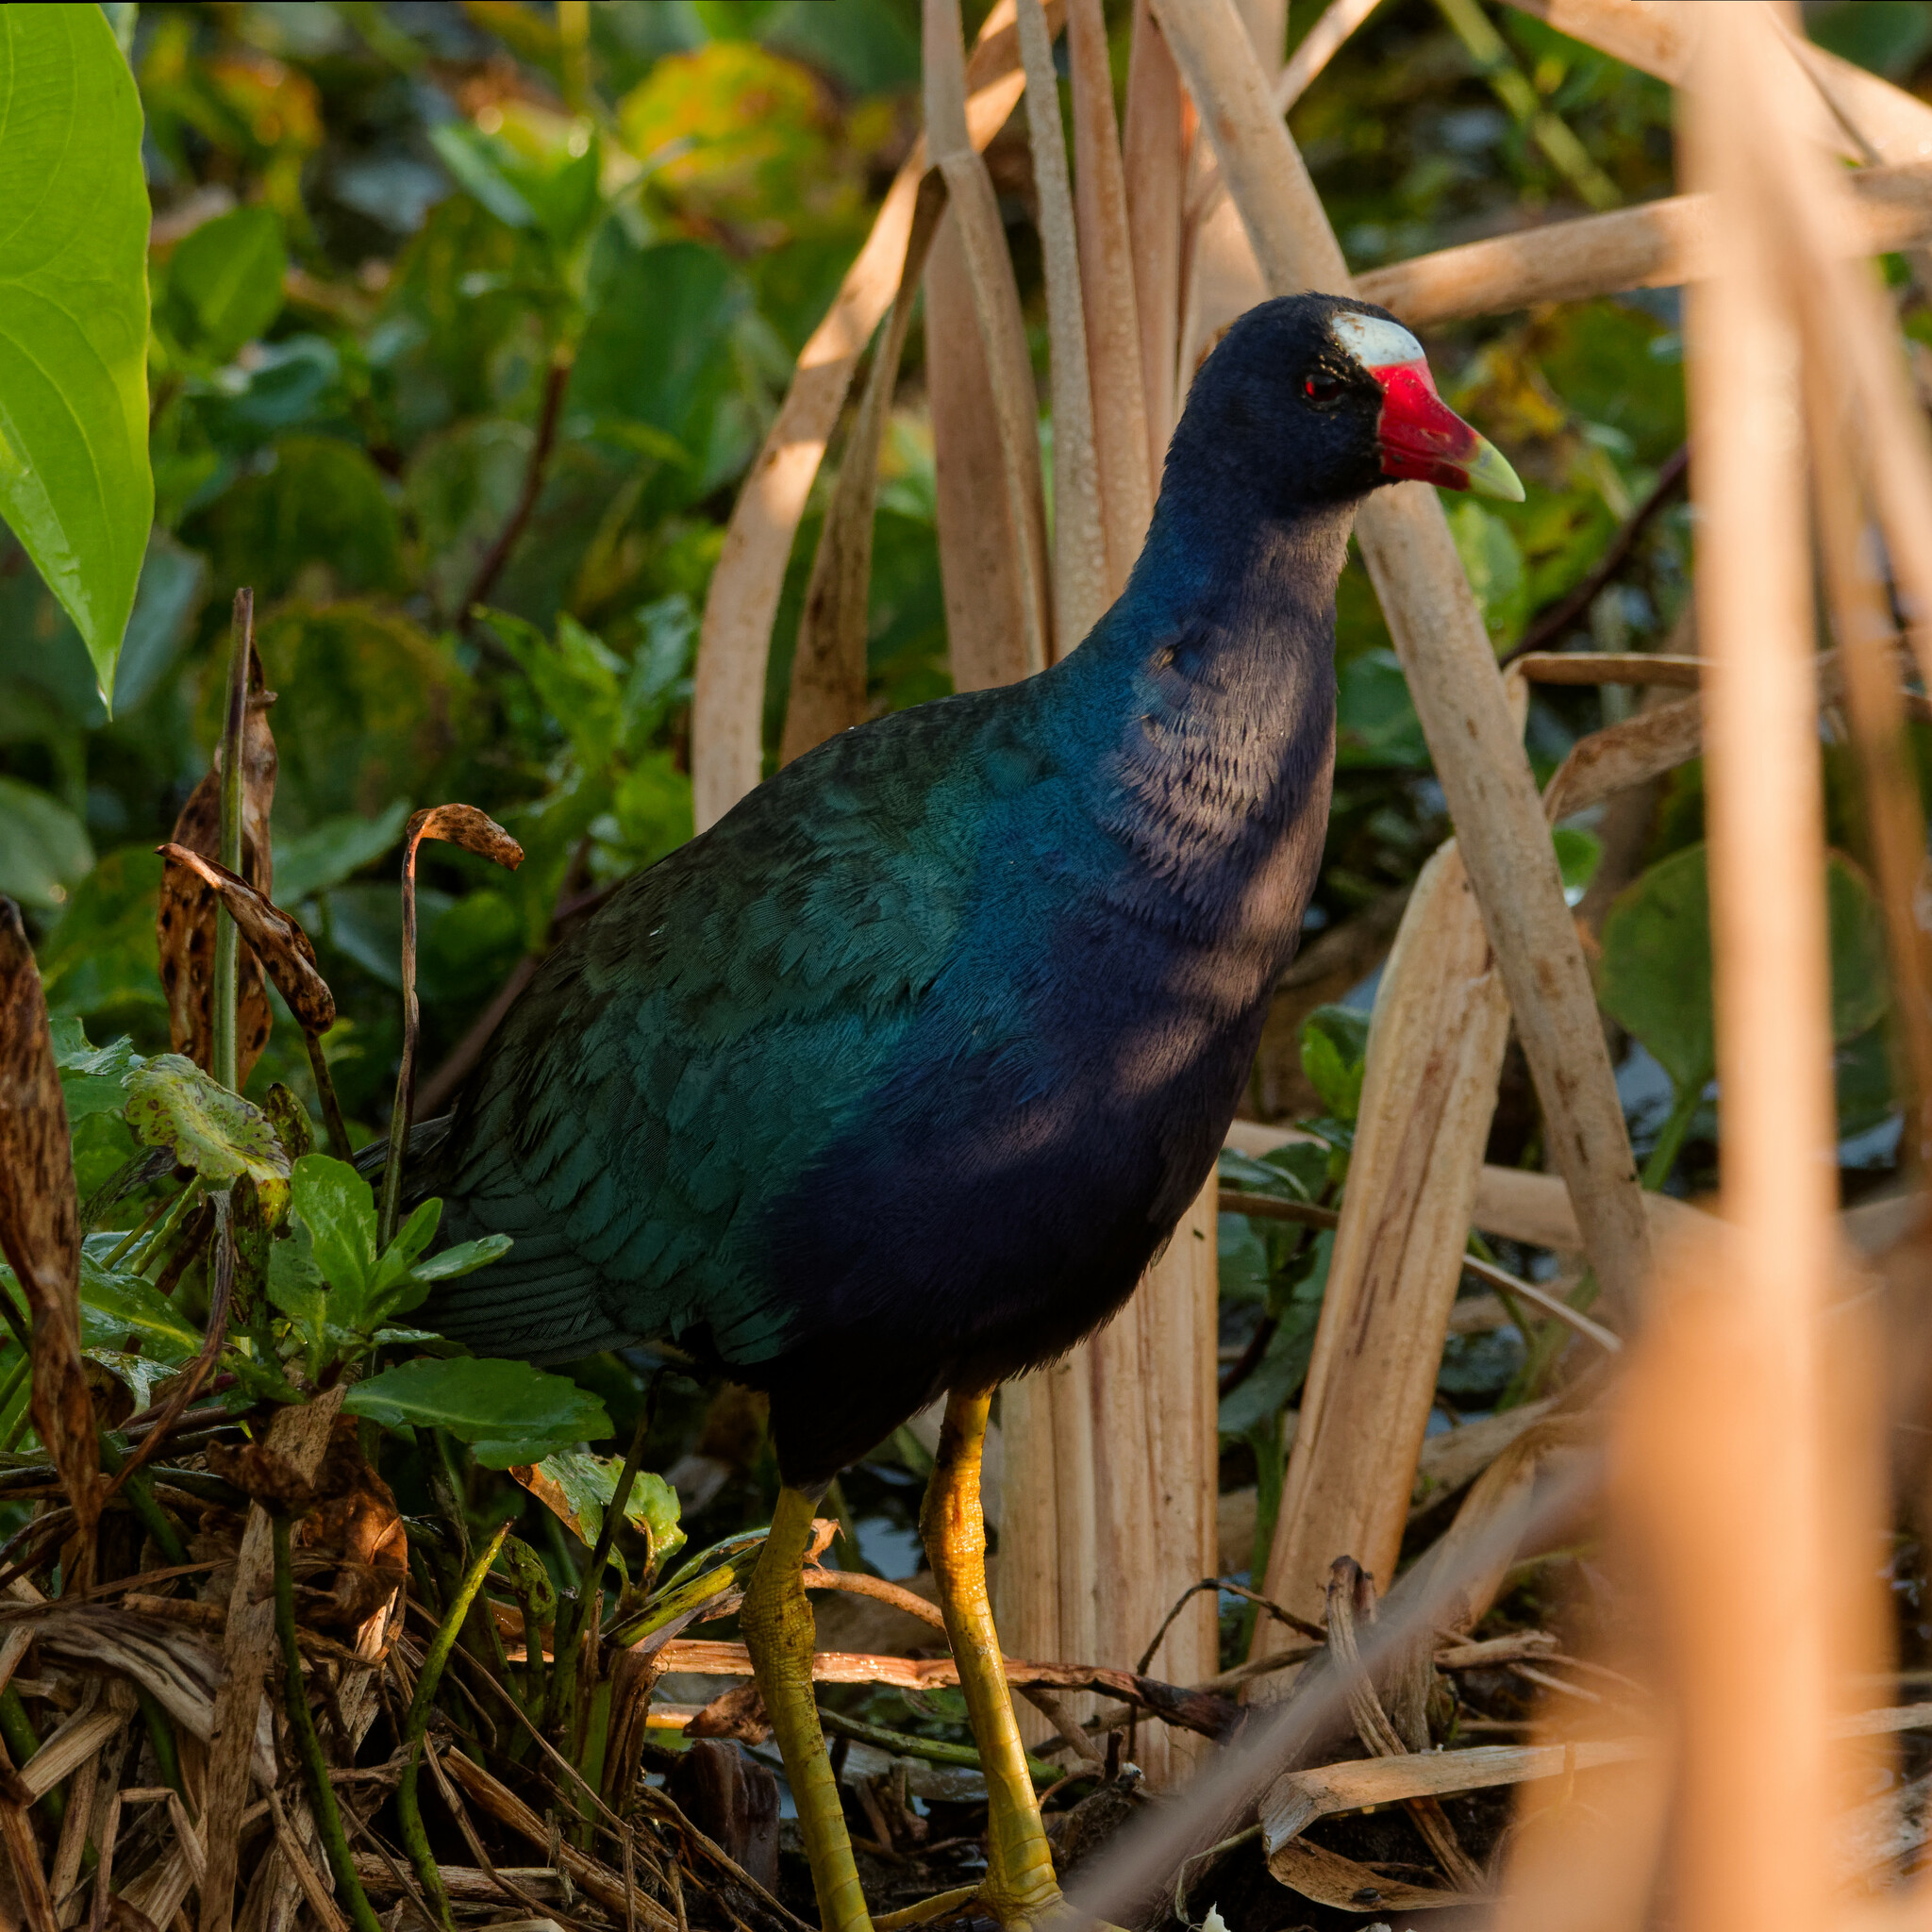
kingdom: Animalia
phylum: Chordata
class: Aves
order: Gruiformes
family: Rallidae
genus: Porphyrio
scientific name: Porphyrio martinica
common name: Purple gallinule
